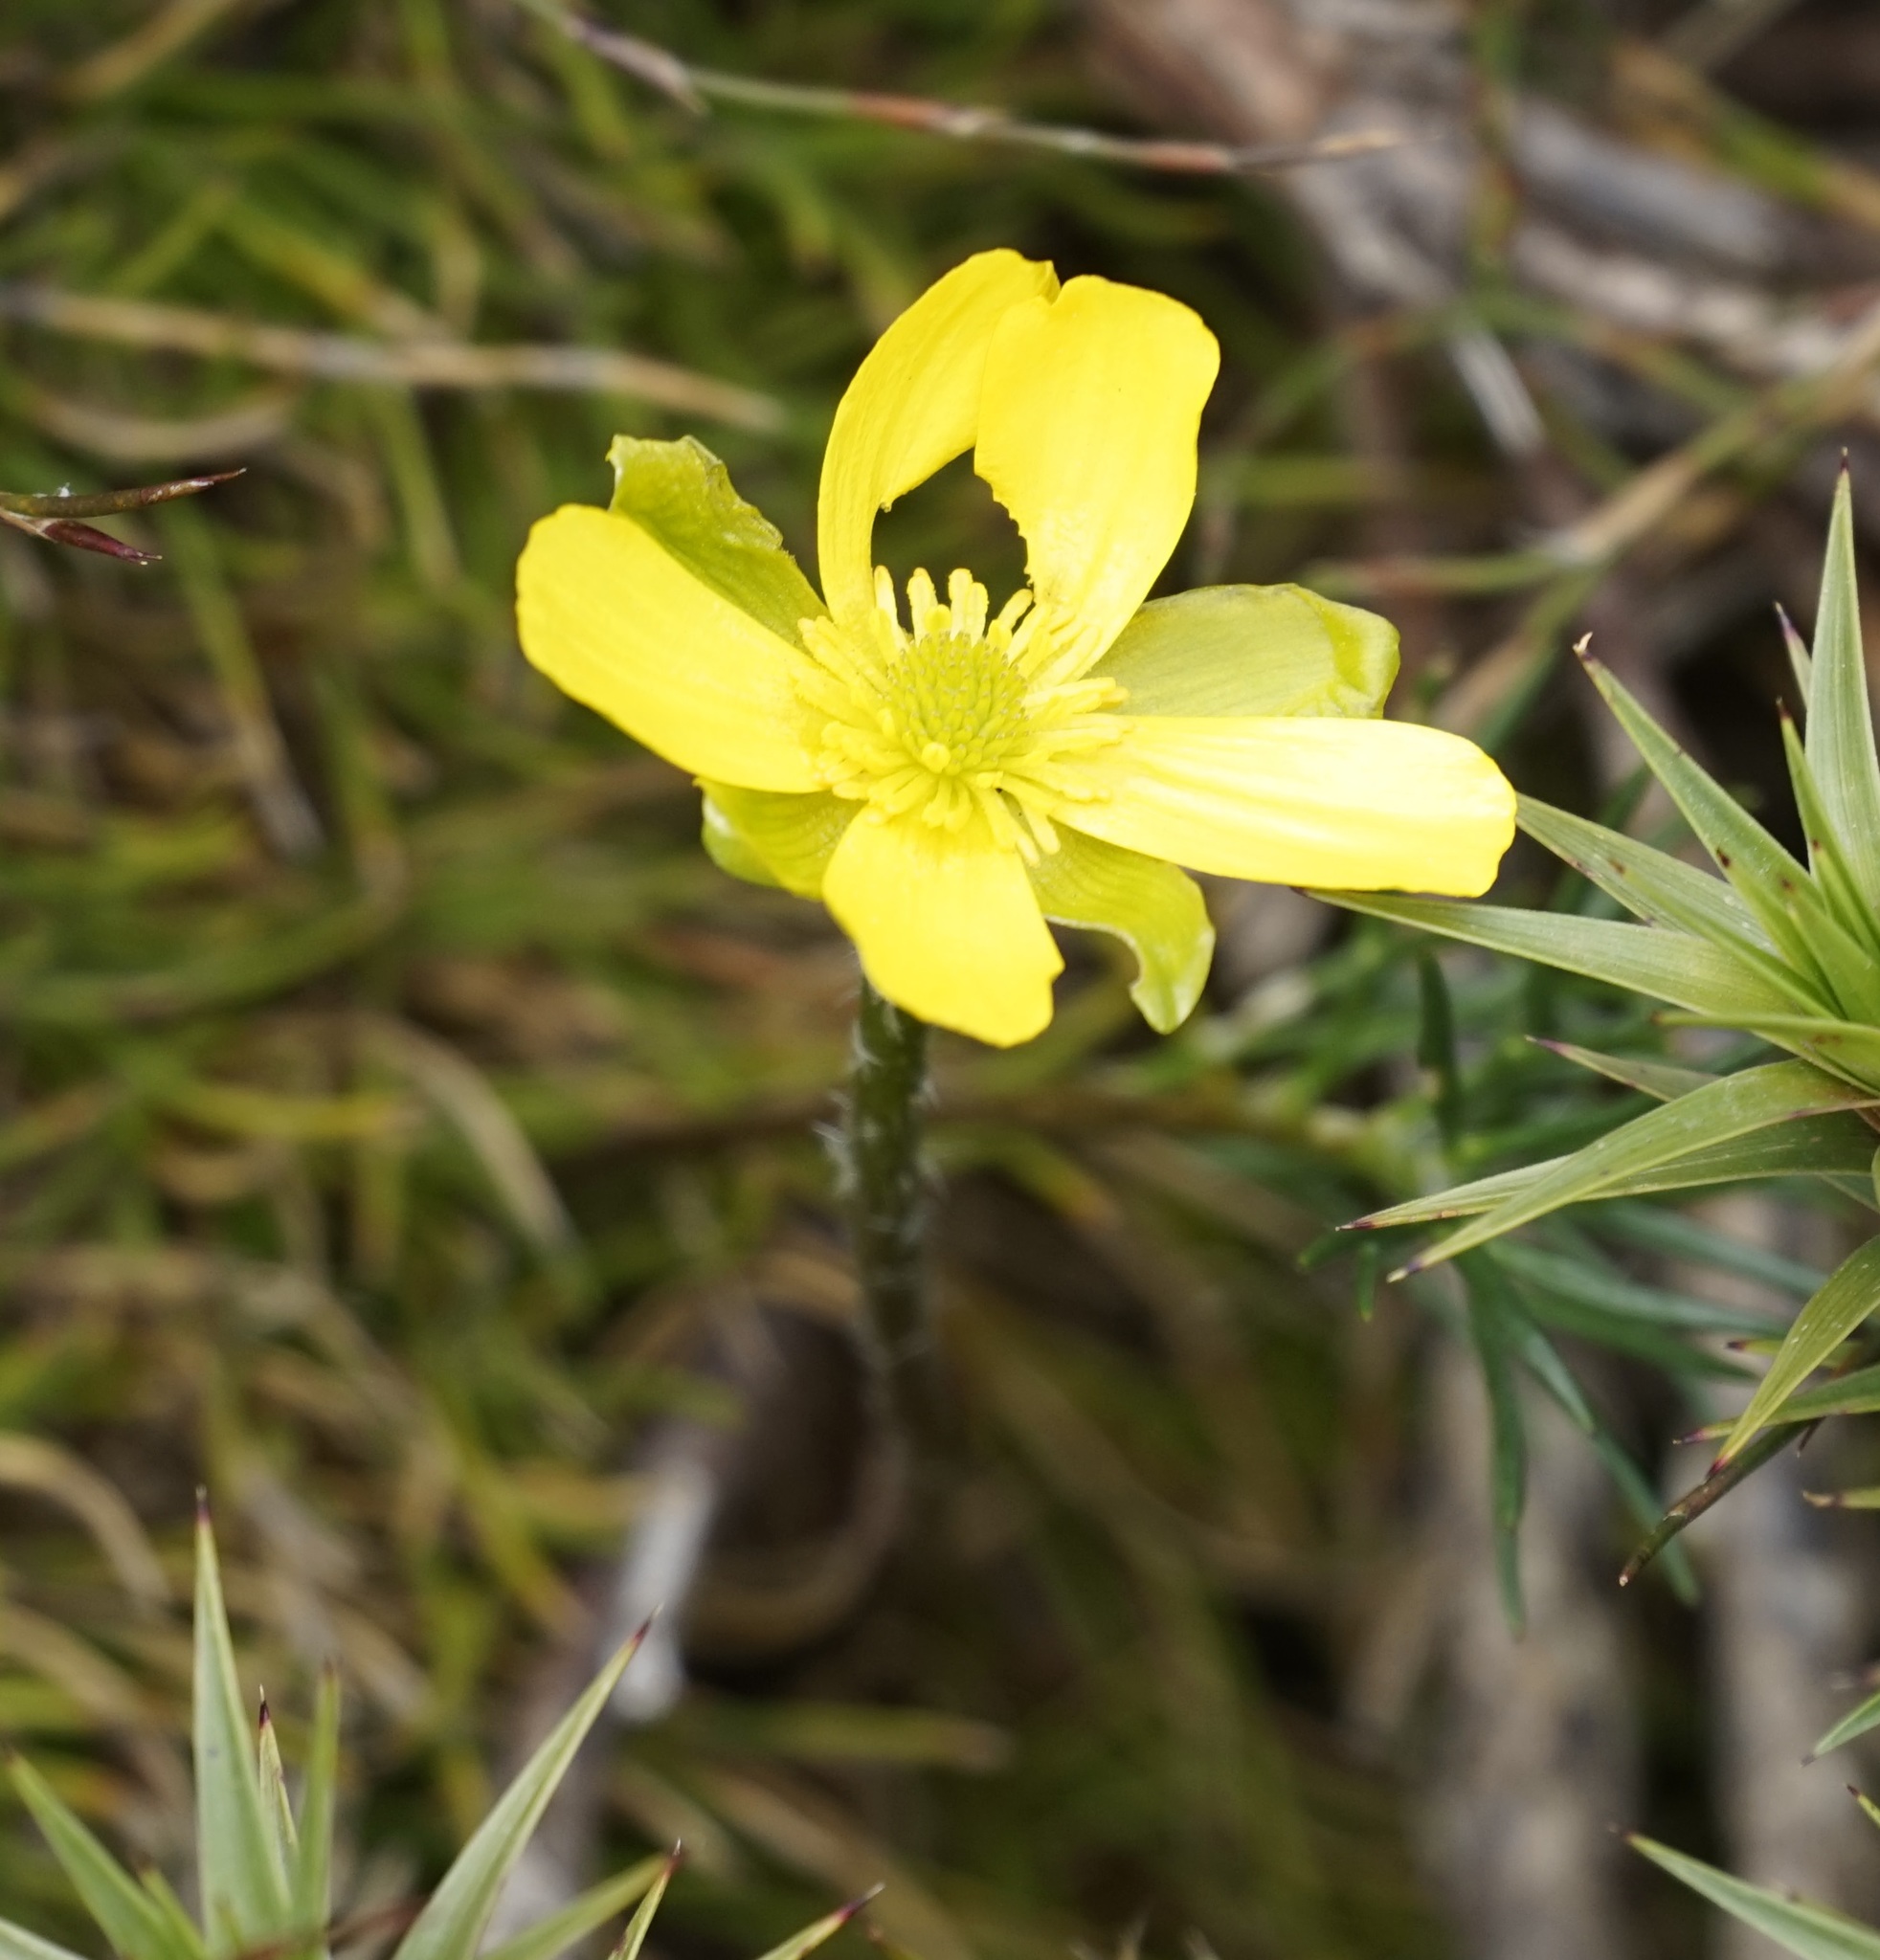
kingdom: Plantae
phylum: Tracheophyta
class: Magnoliopsida
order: Ranunculales
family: Ranunculaceae
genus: Ranunculus
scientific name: Ranunculus gunnianus
